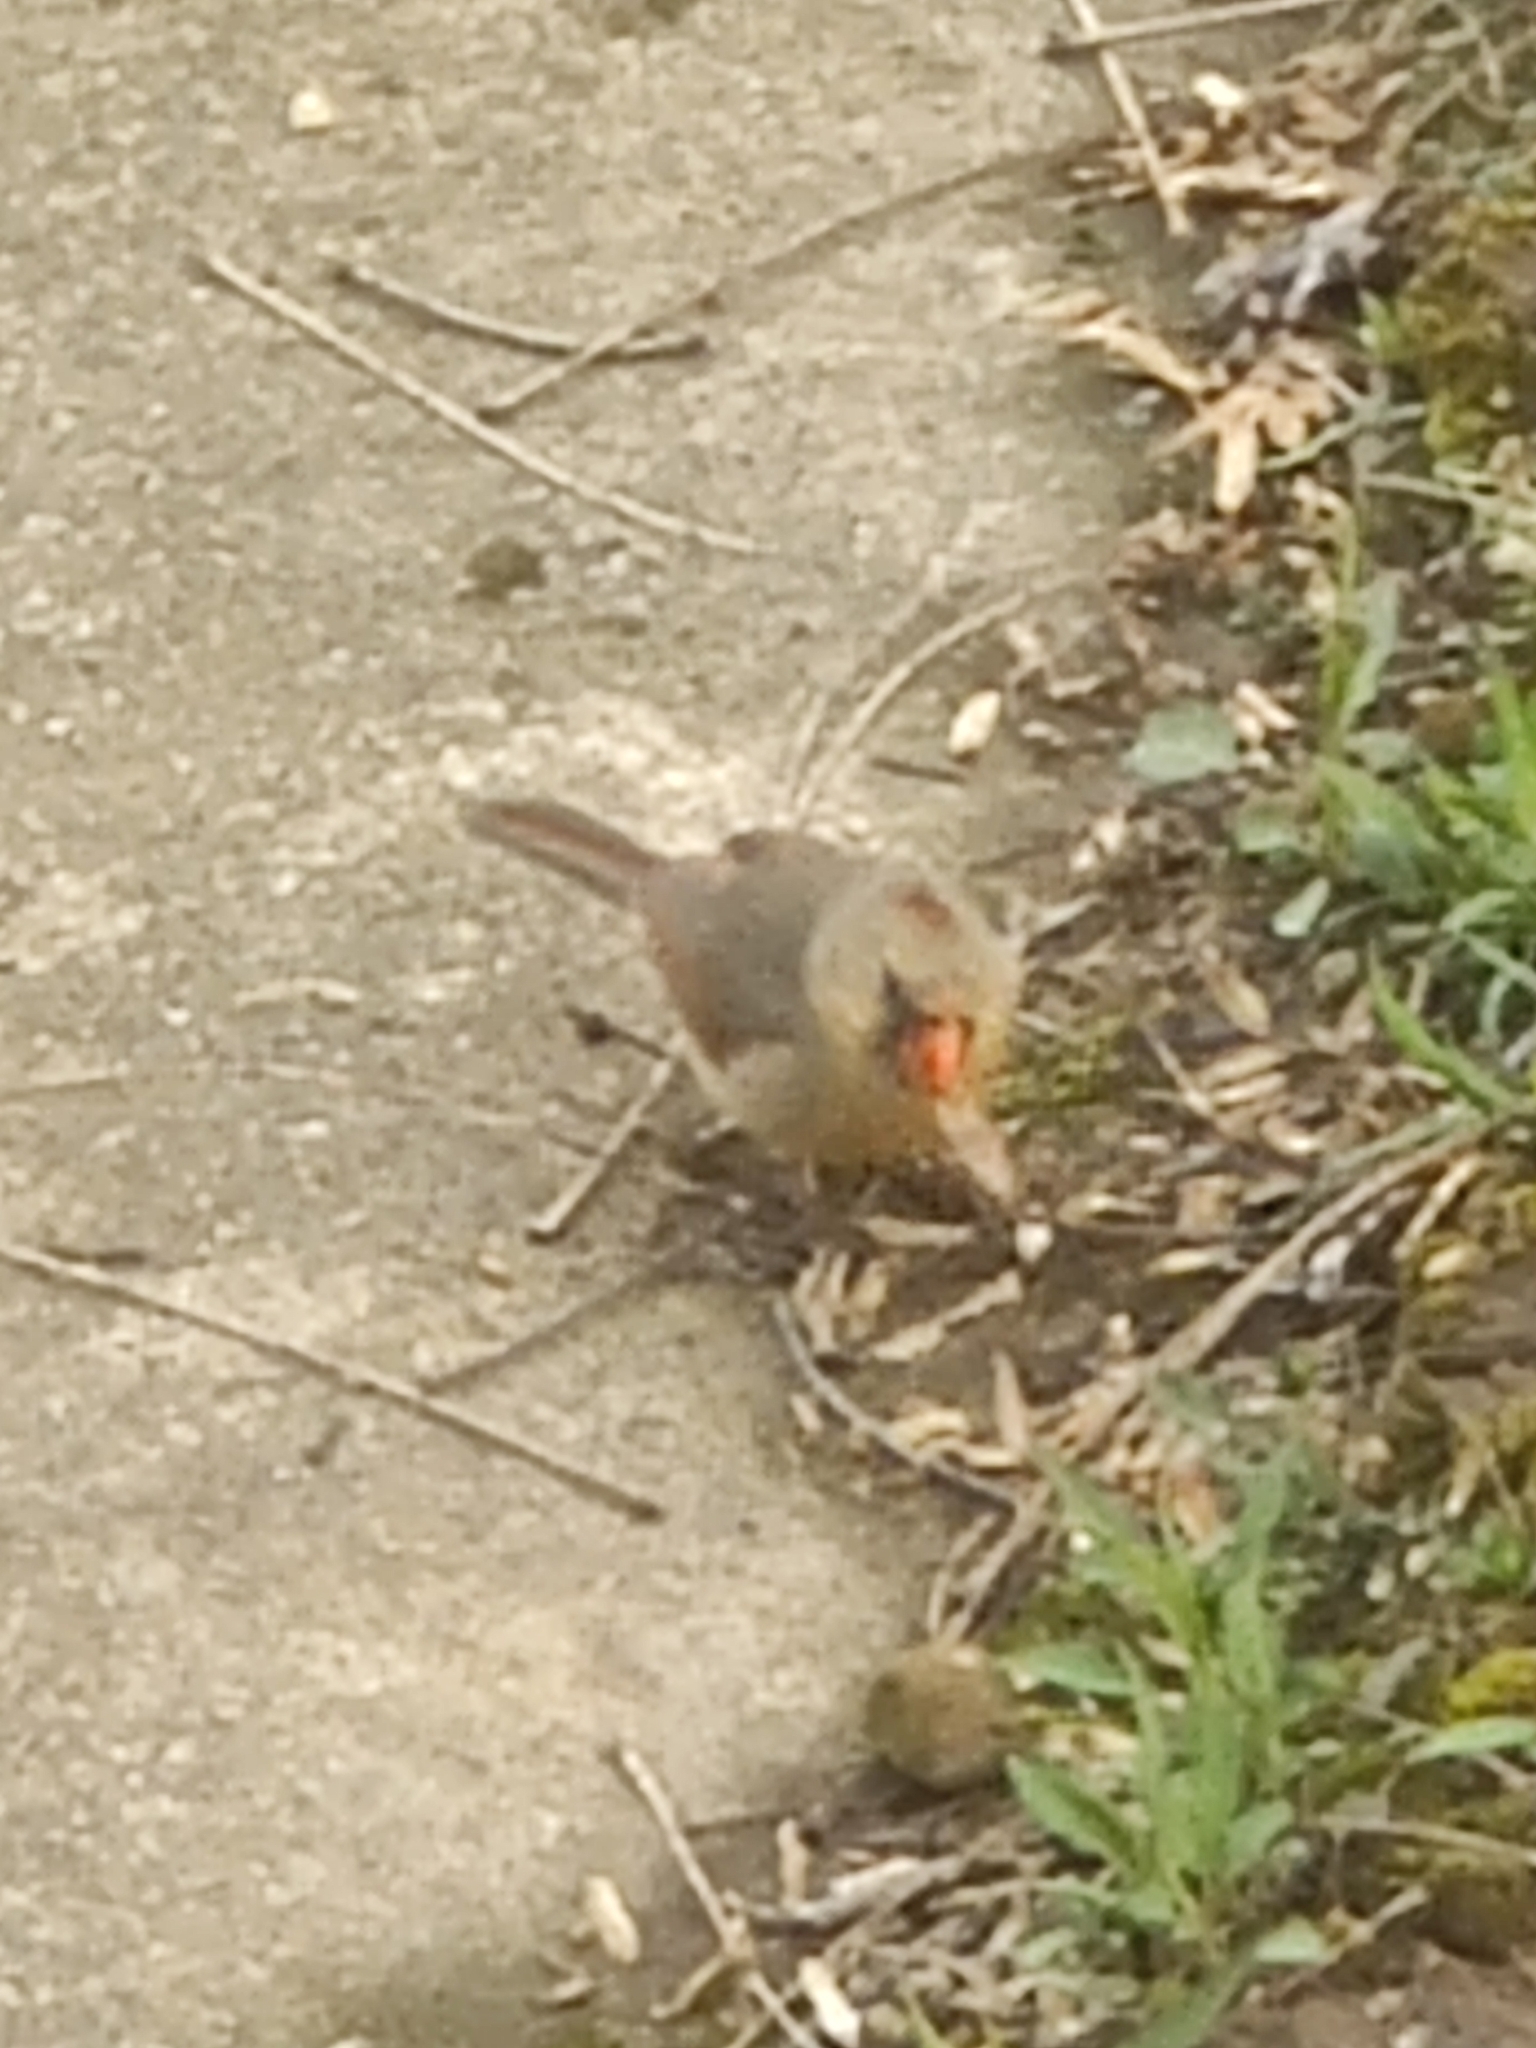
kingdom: Animalia
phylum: Chordata
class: Aves
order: Passeriformes
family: Cardinalidae
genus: Cardinalis
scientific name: Cardinalis cardinalis
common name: Northern cardinal
